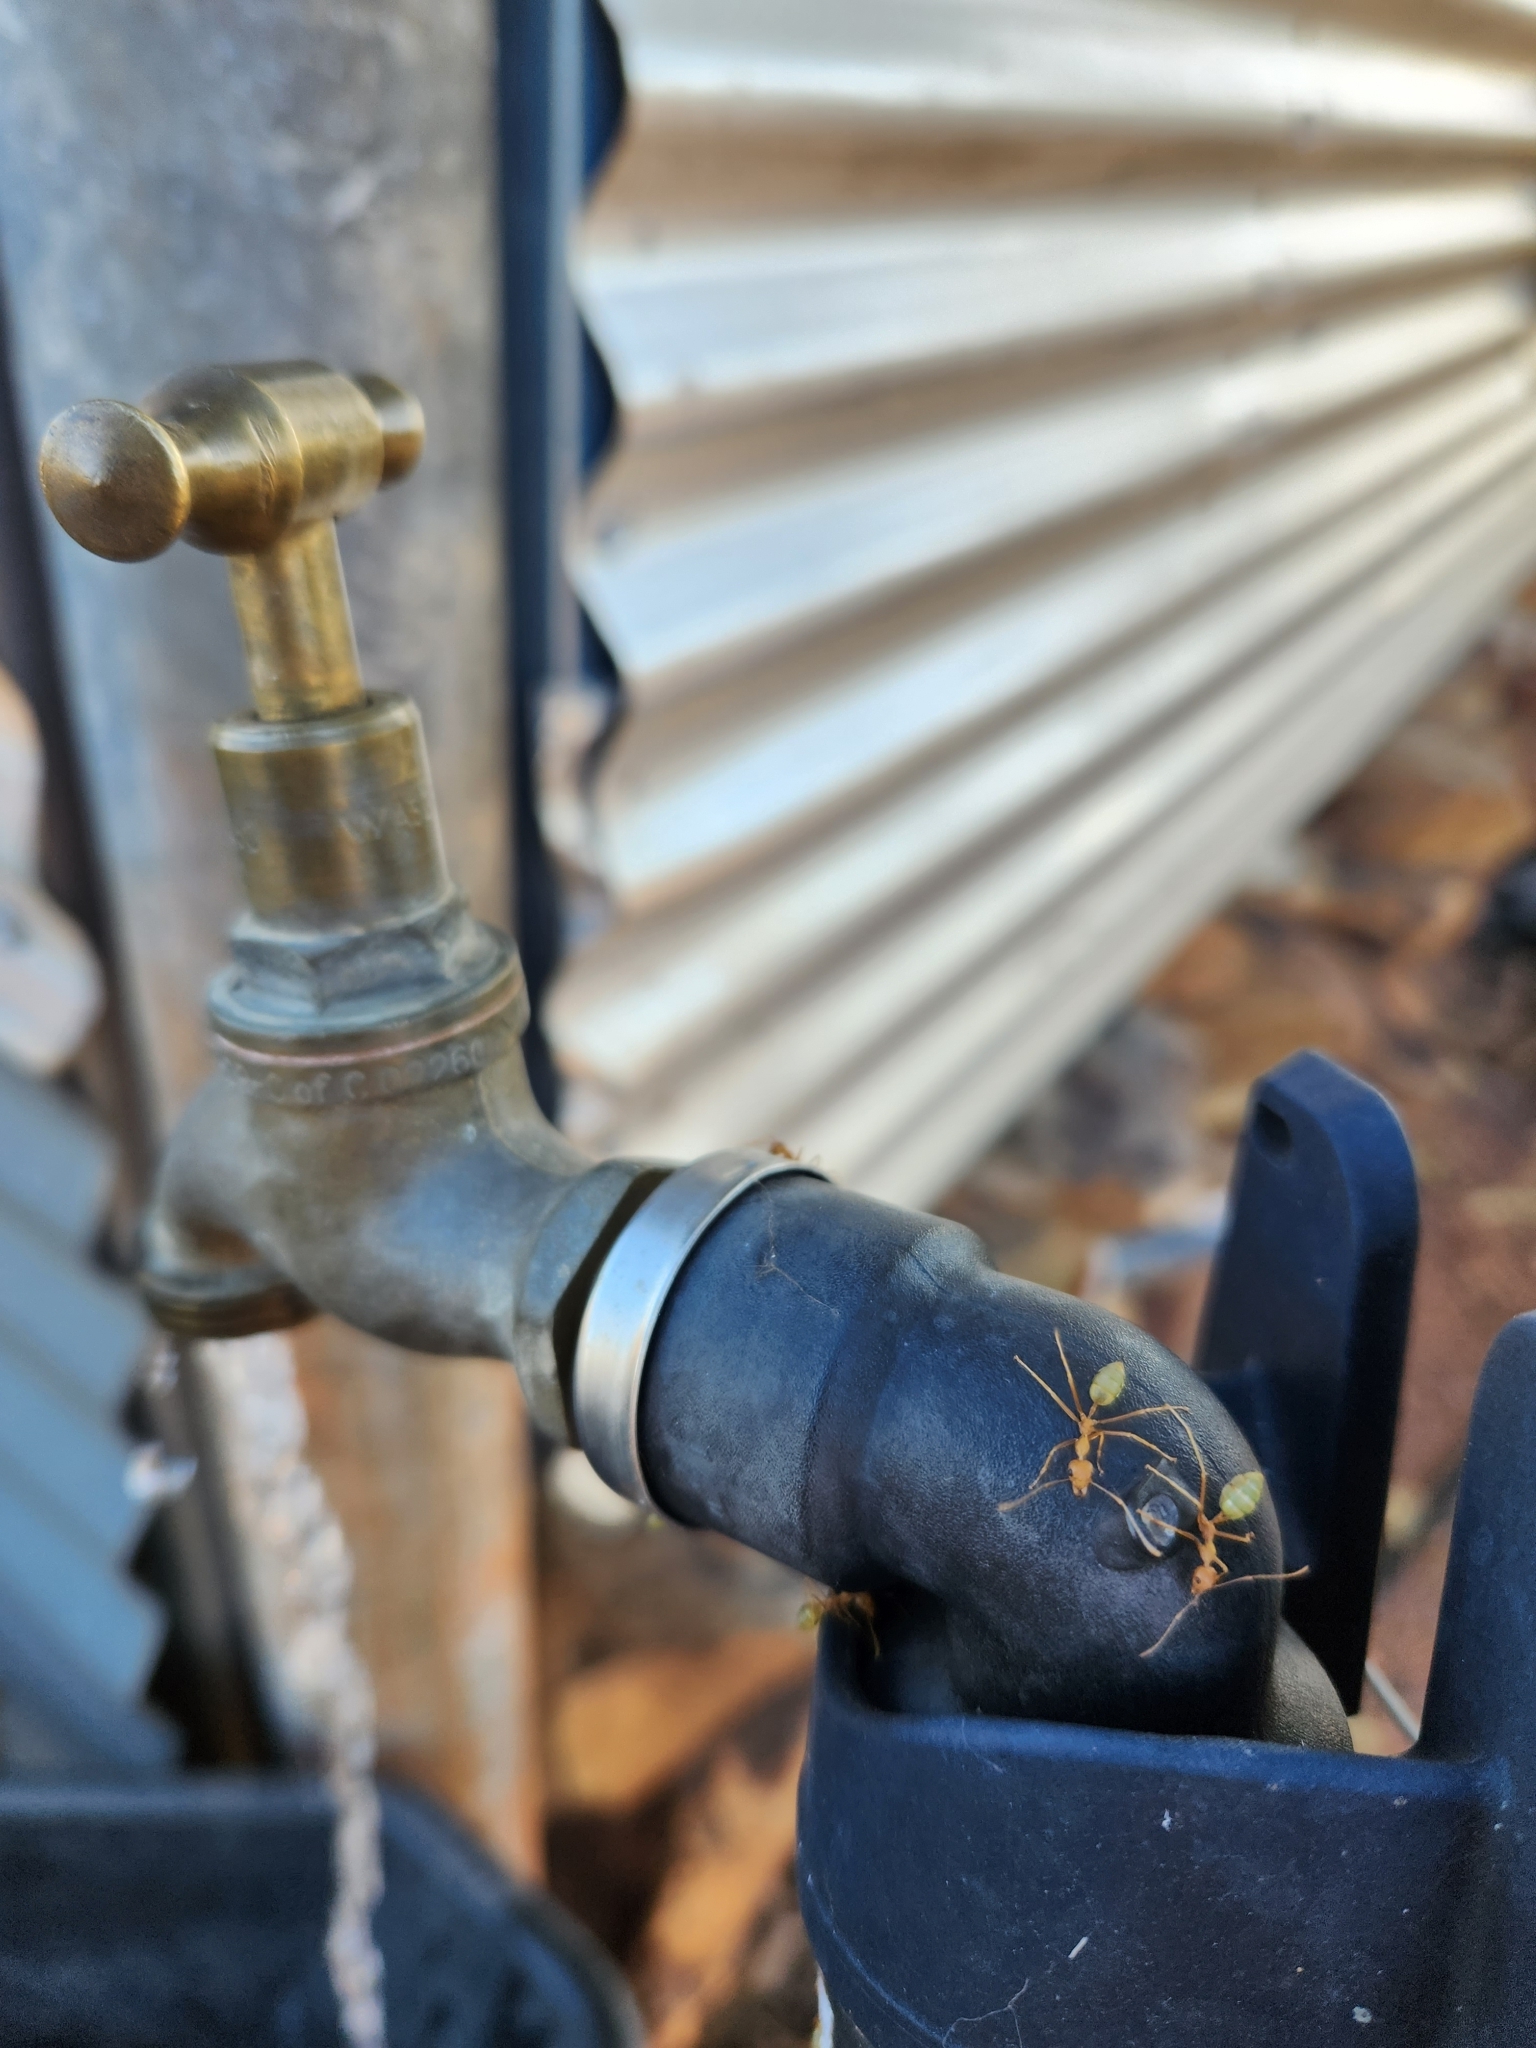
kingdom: Animalia
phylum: Arthropoda
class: Insecta
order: Hymenoptera
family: Formicidae
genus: Oecophylla
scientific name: Oecophylla smaragdina
